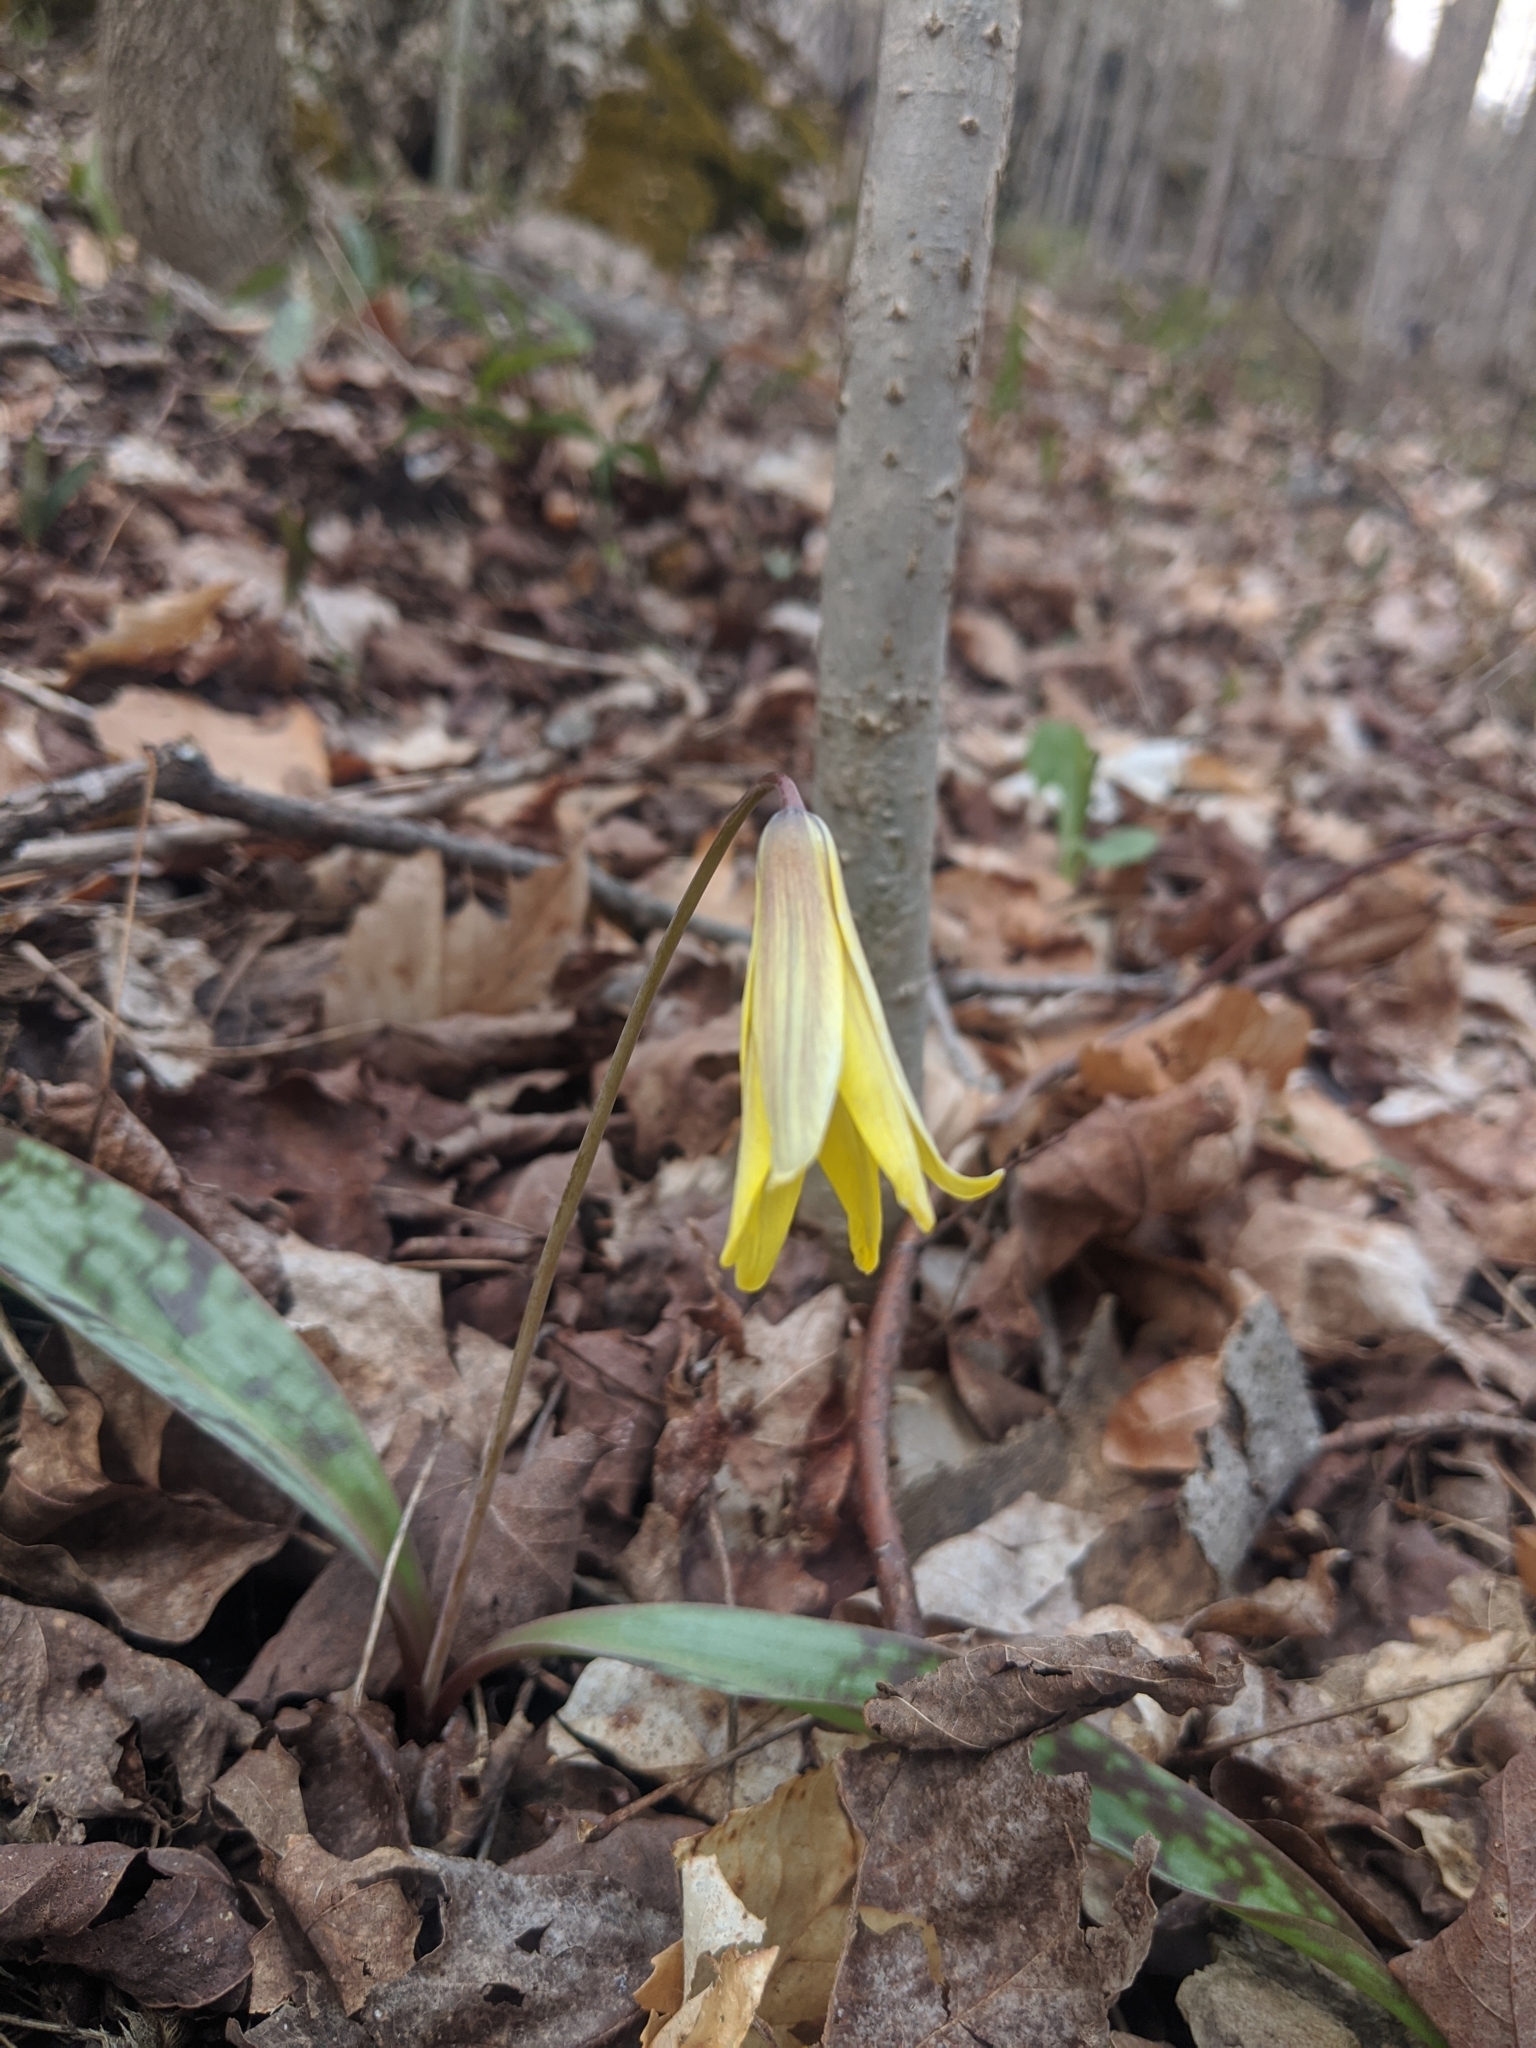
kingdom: Plantae
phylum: Tracheophyta
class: Liliopsida
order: Liliales
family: Liliaceae
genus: Erythronium
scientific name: Erythronium americanum
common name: Yellow adder's-tongue
